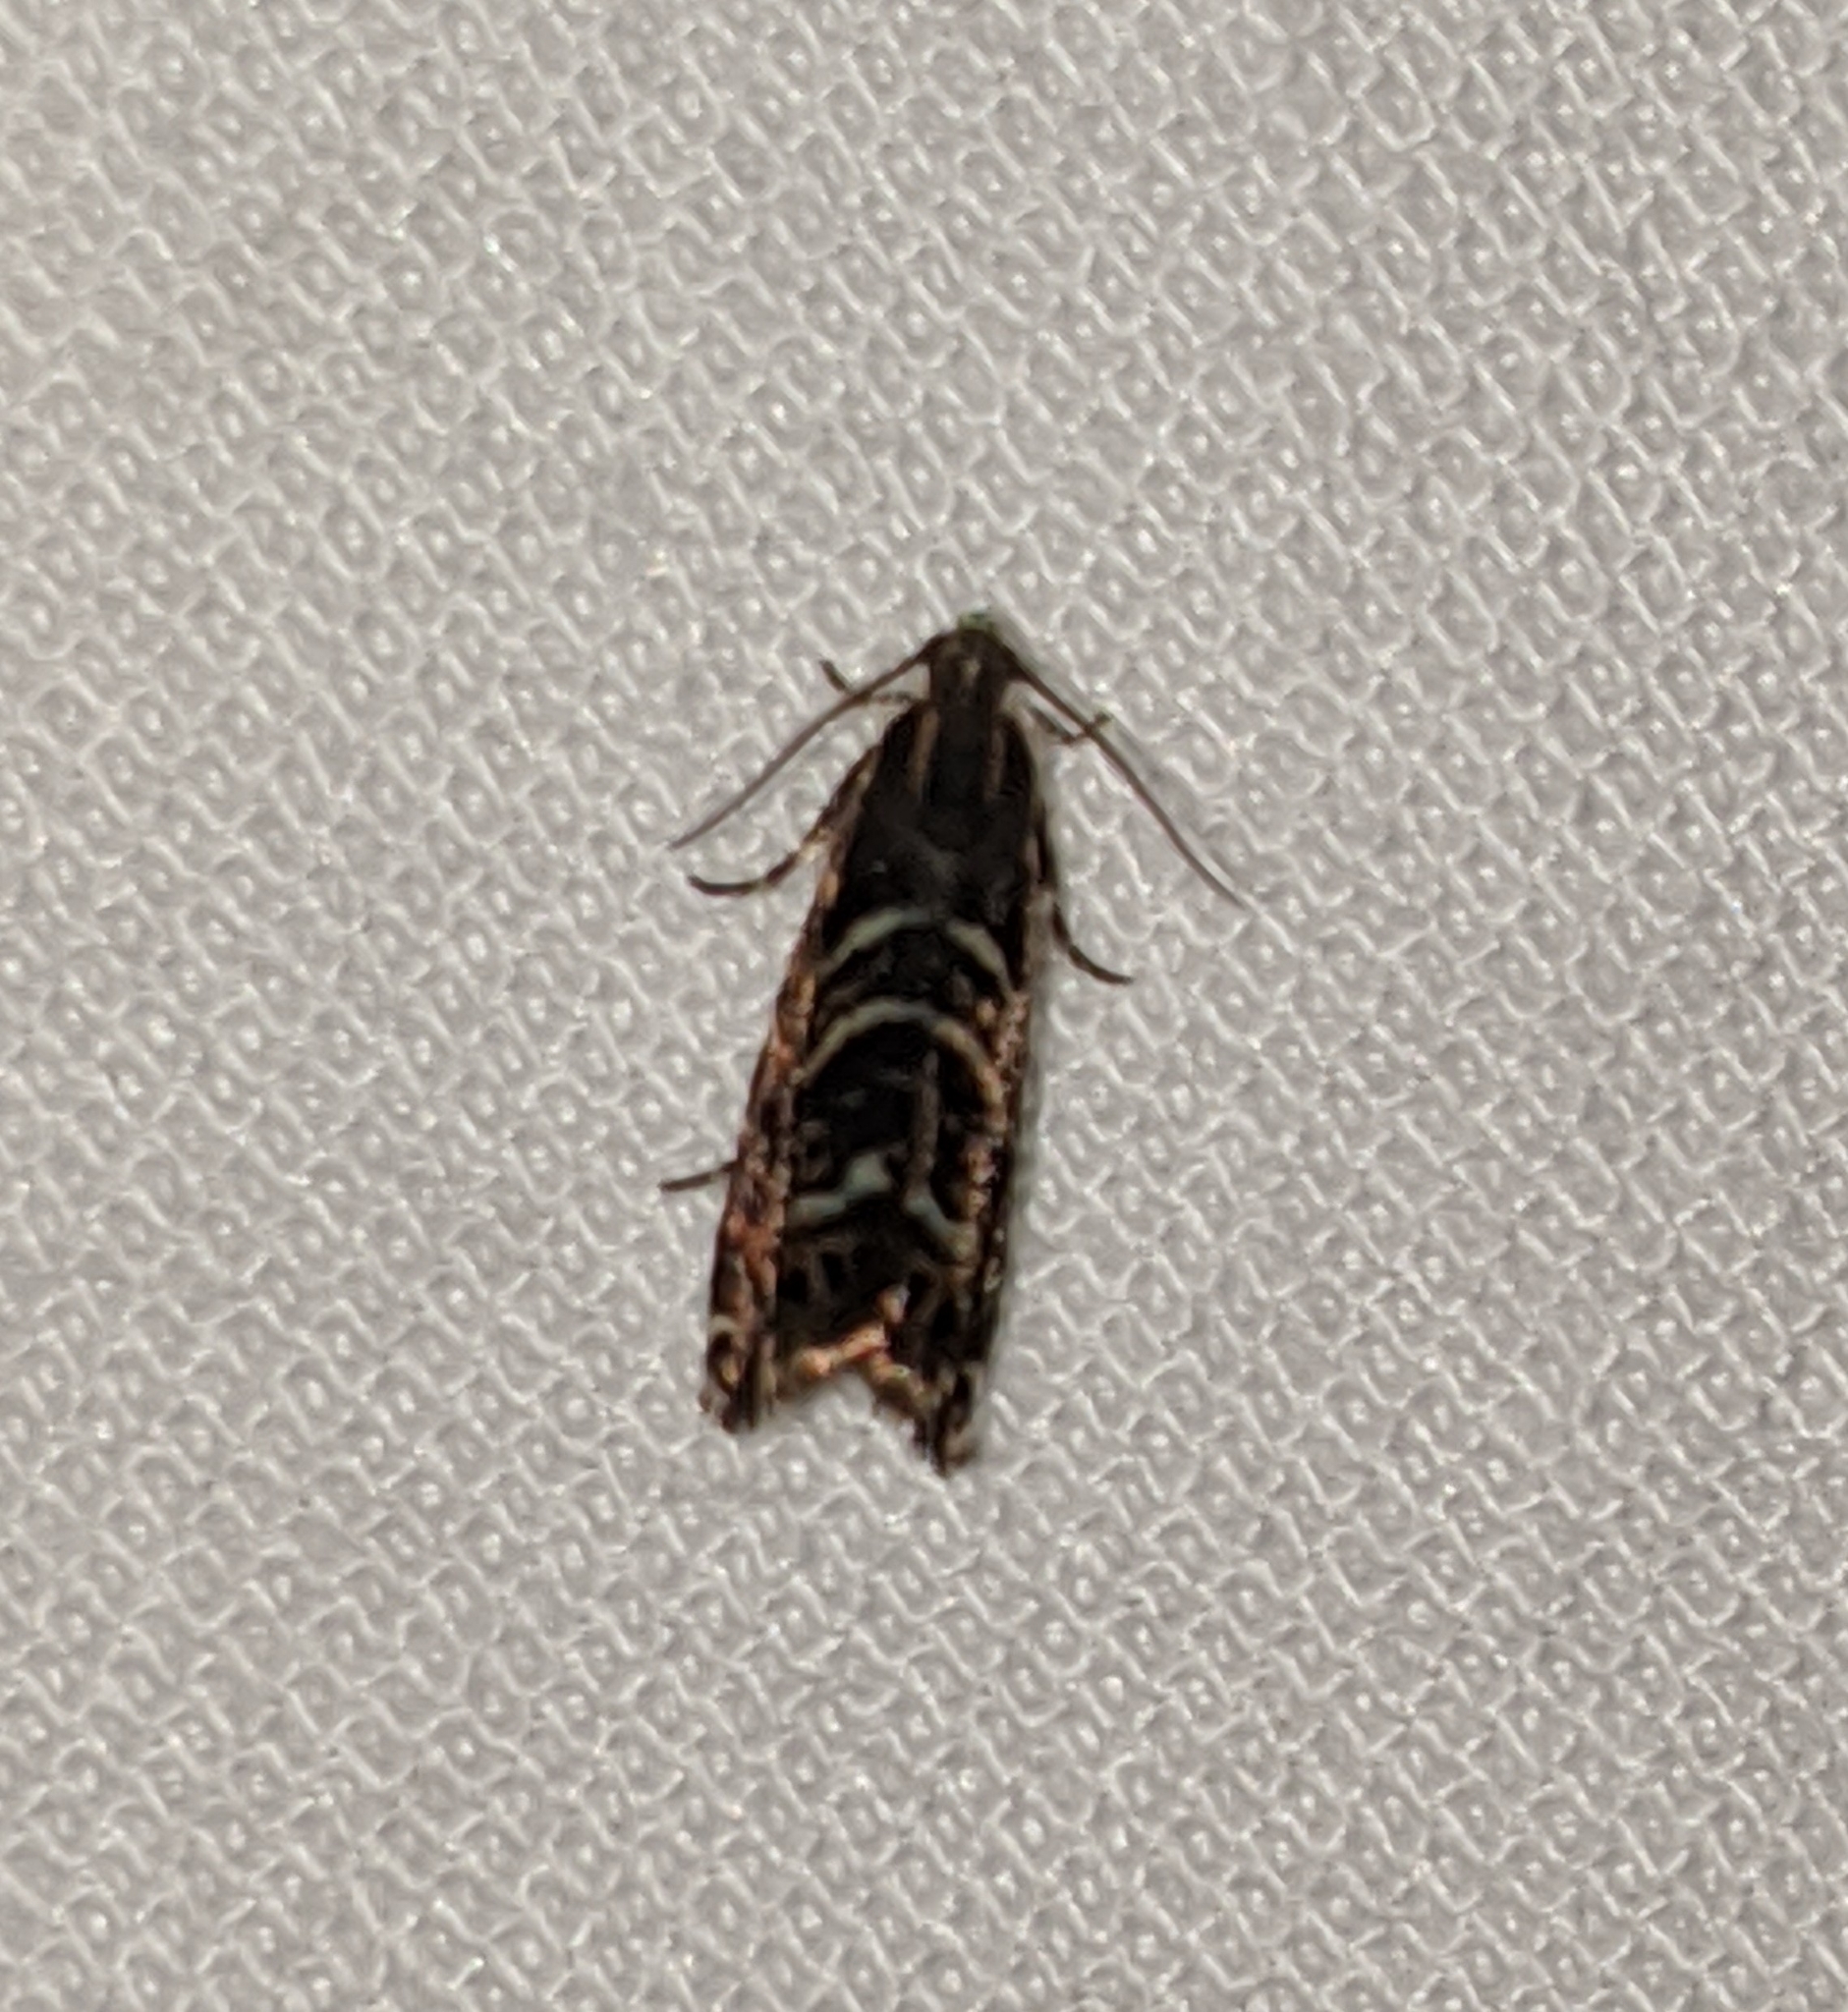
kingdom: Animalia
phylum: Arthropoda
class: Insecta
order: Lepidoptera
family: Tortricidae
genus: Thaumatographa
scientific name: Thaumatographa youngiella
